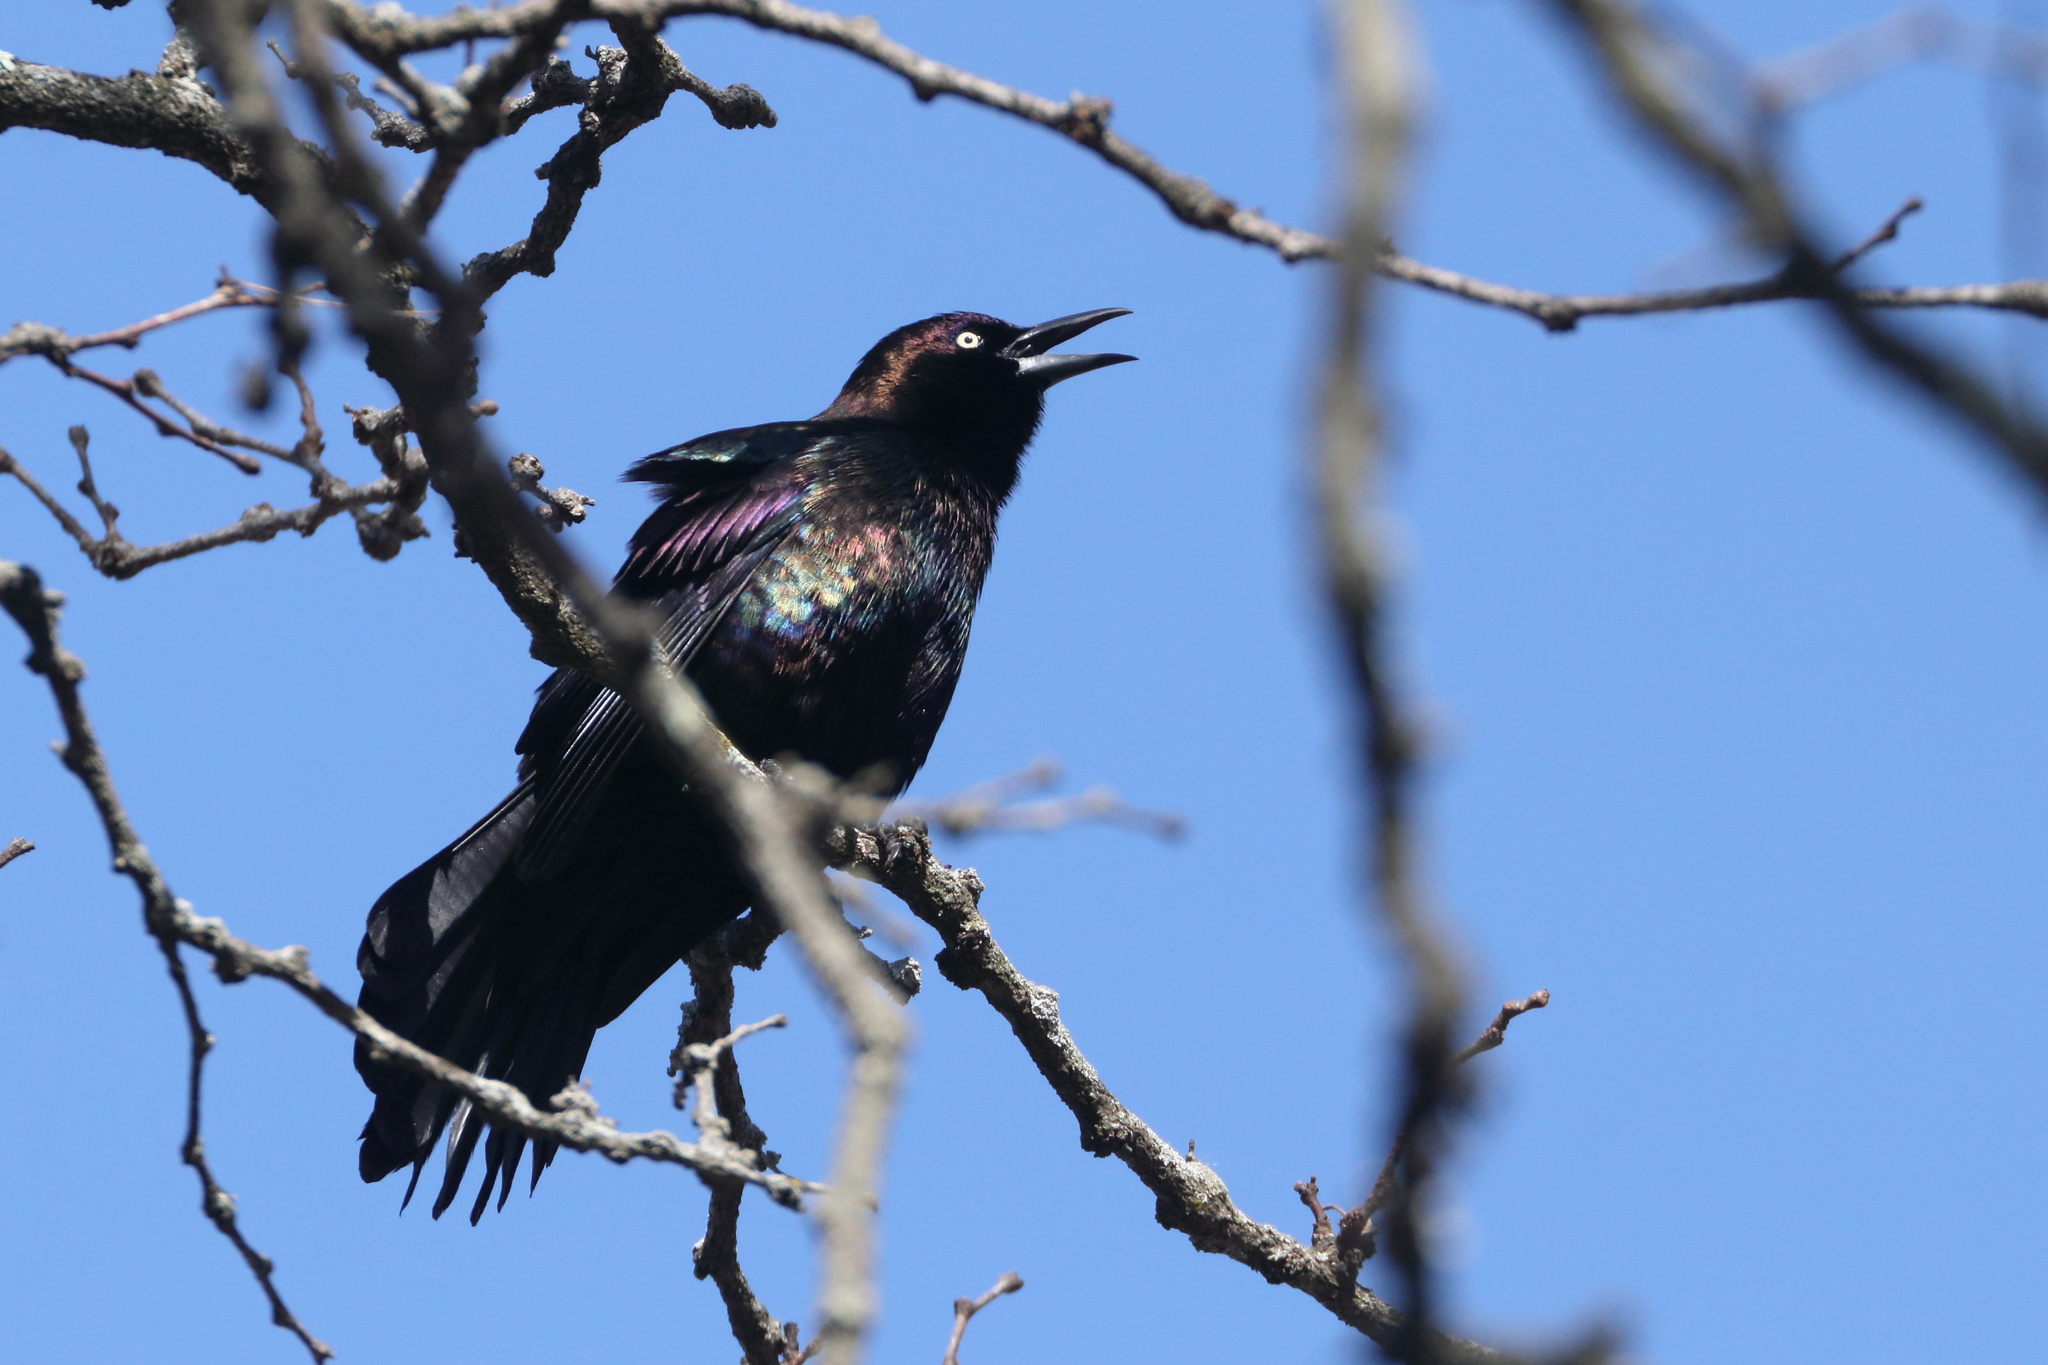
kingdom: Animalia
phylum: Chordata
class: Aves
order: Passeriformes
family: Icteridae
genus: Quiscalus
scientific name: Quiscalus quiscula
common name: Common grackle
